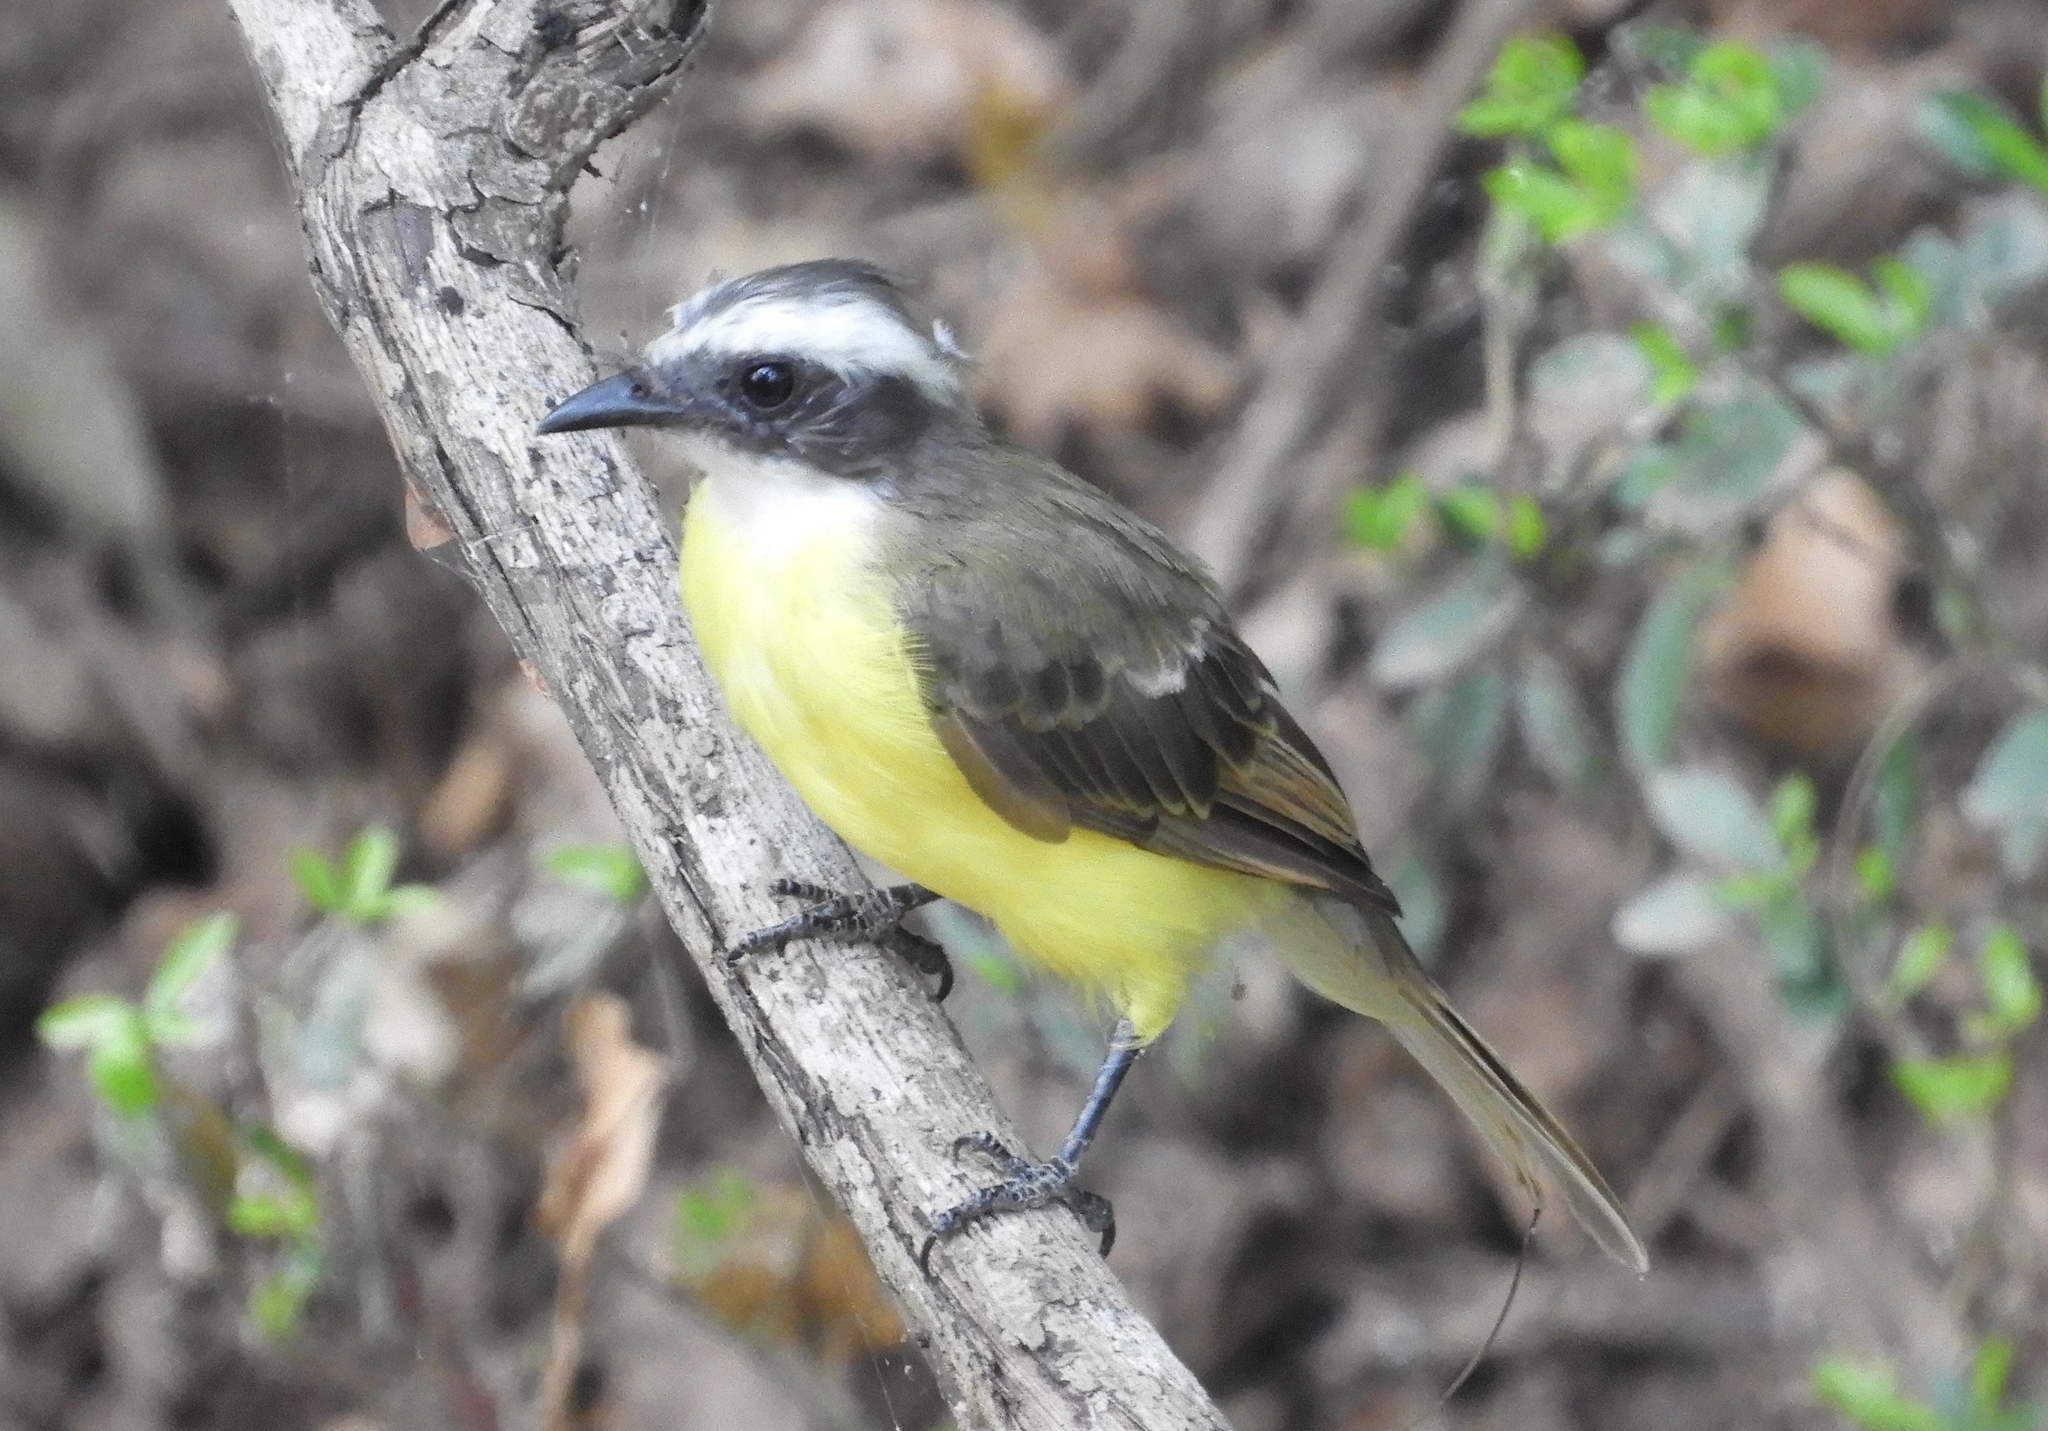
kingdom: Animalia
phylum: Chordata
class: Aves
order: Passeriformes
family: Tyrannidae
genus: Myiozetetes
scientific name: Myiozetetes similis
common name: Social flycatcher
